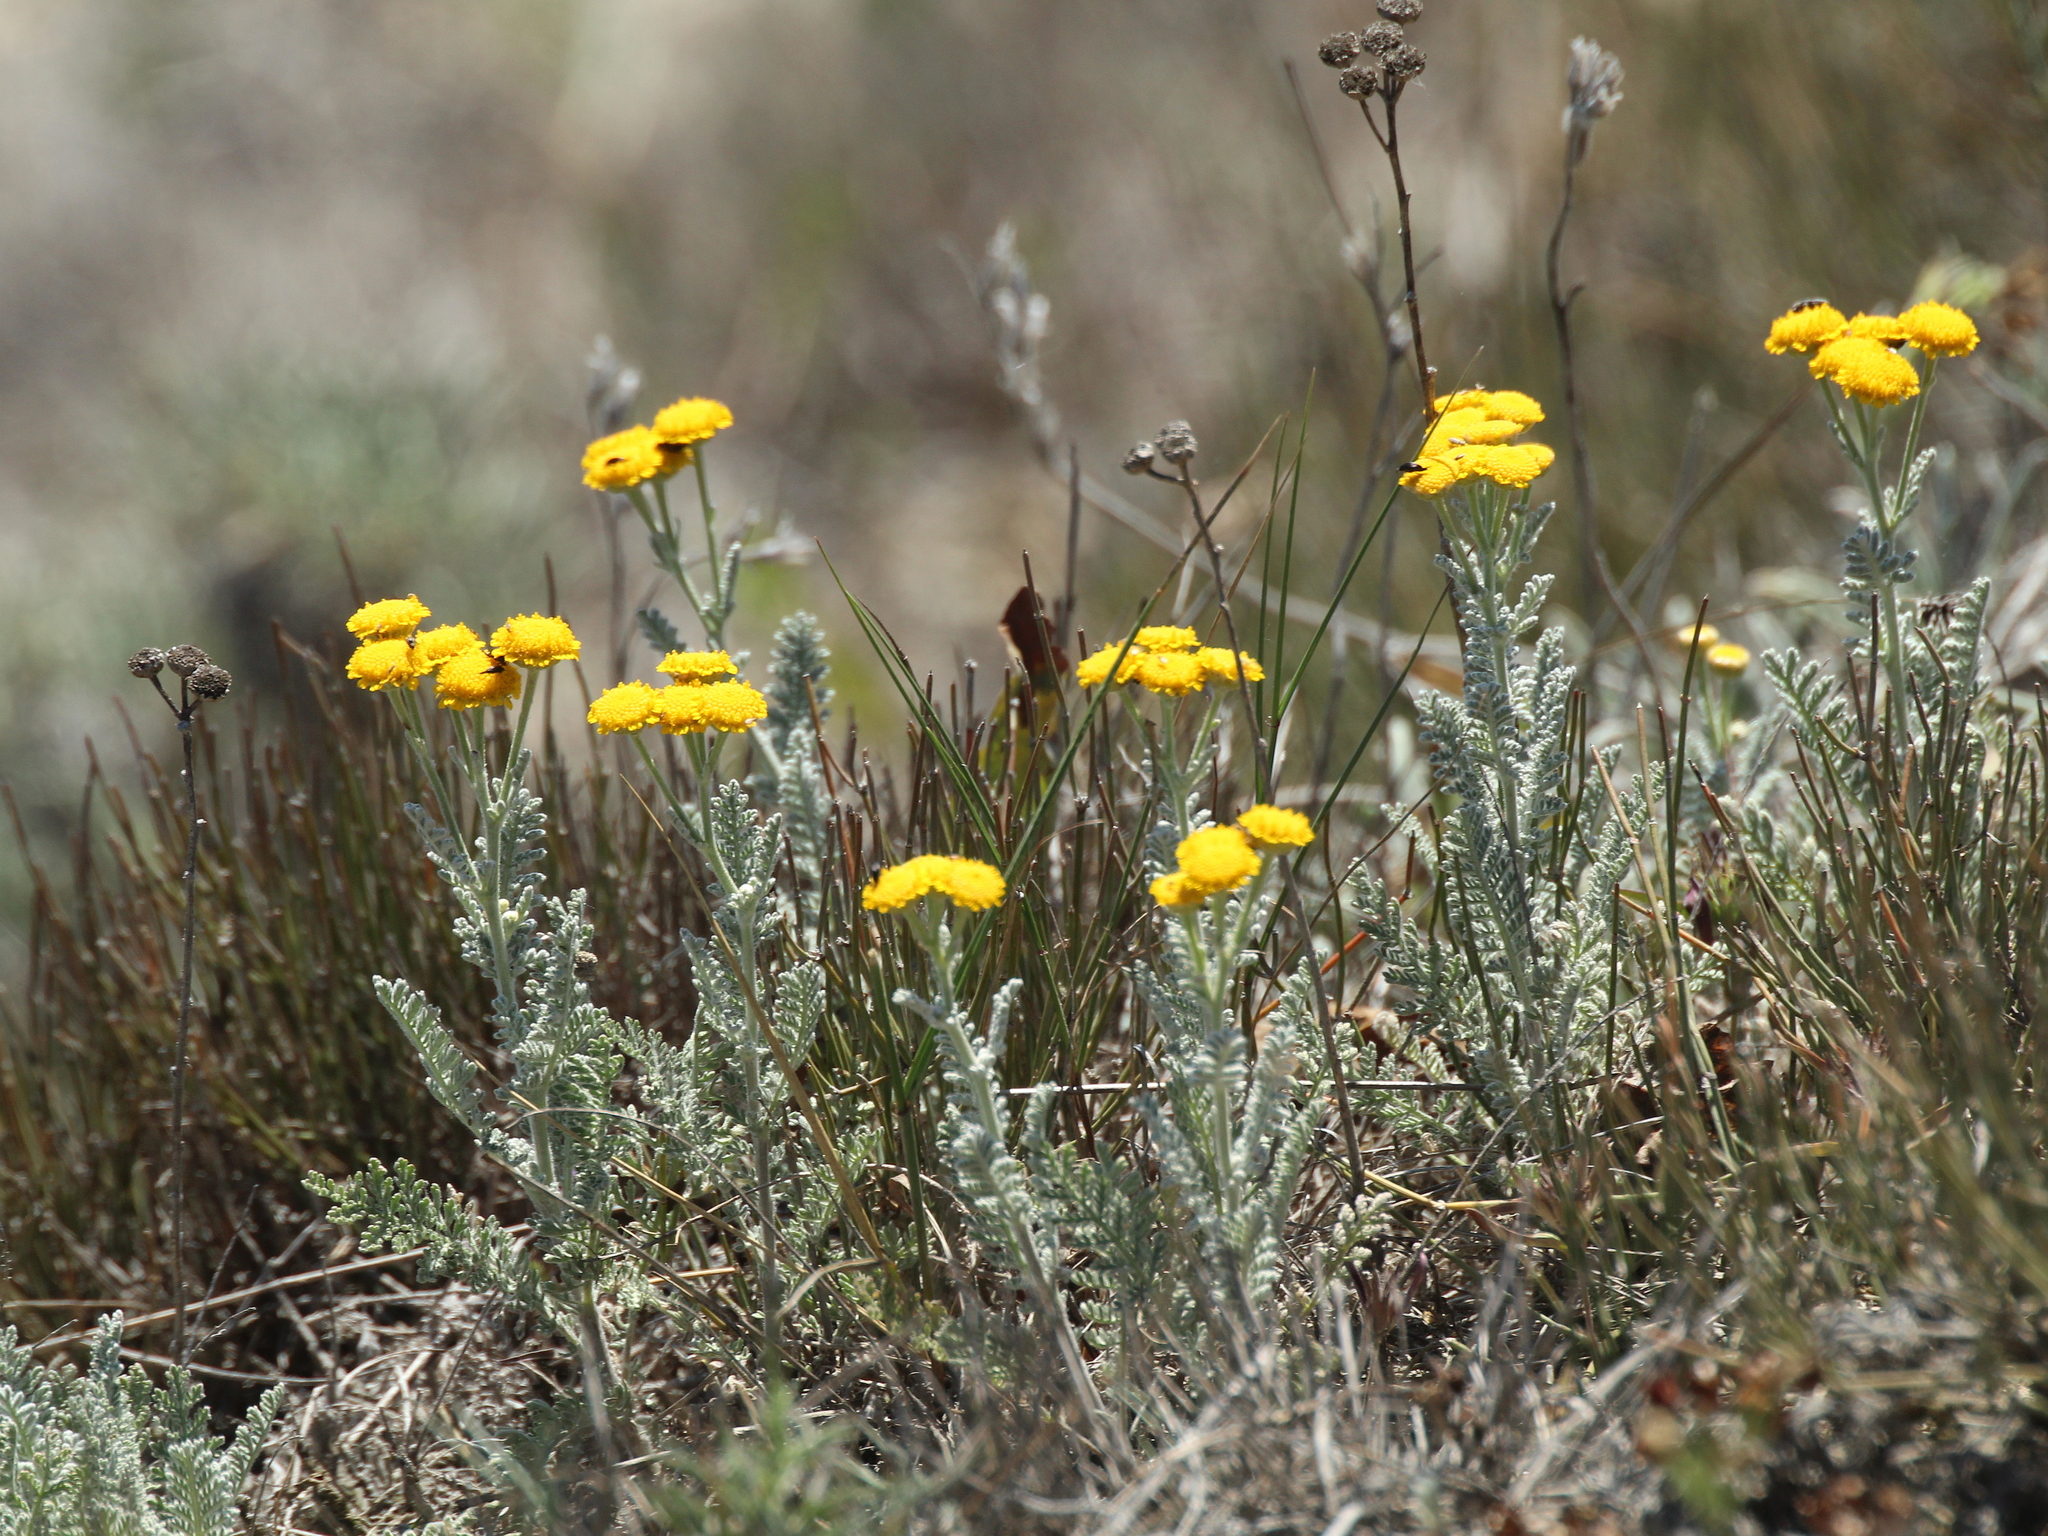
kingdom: Plantae
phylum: Tracheophyta
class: Magnoliopsida
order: Asterales
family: Asteraceae
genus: Tanacetum
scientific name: Tanacetum achilleifolium
